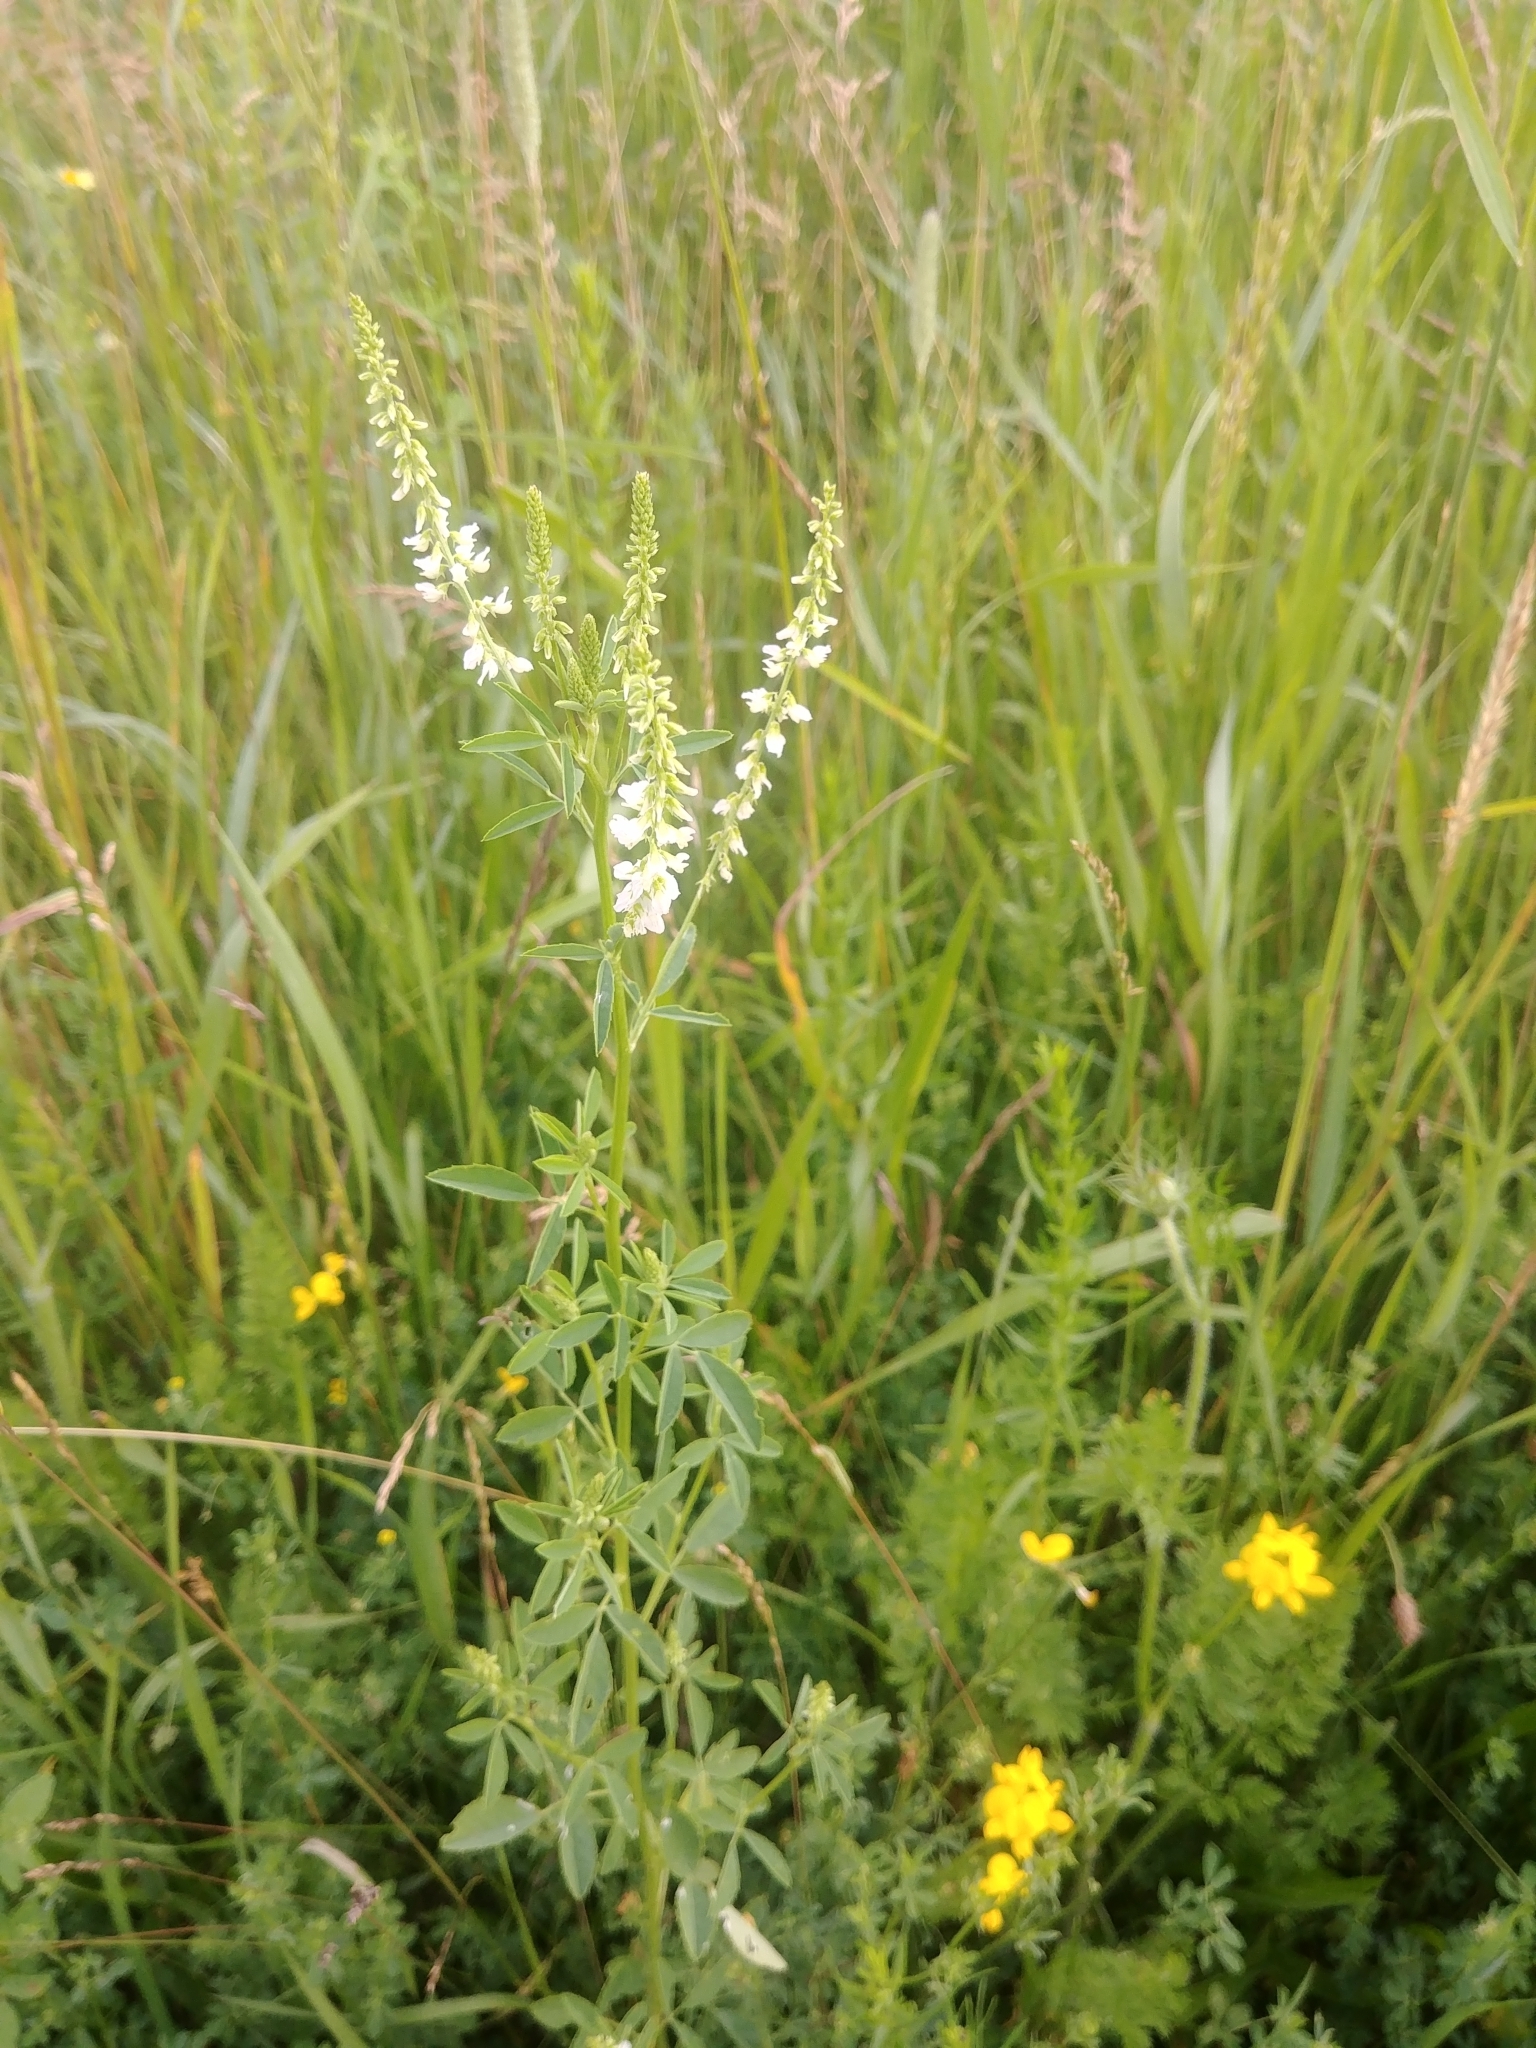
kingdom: Plantae
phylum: Tracheophyta
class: Magnoliopsida
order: Fabales
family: Fabaceae
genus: Melilotus
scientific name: Melilotus albus
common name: White melilot
